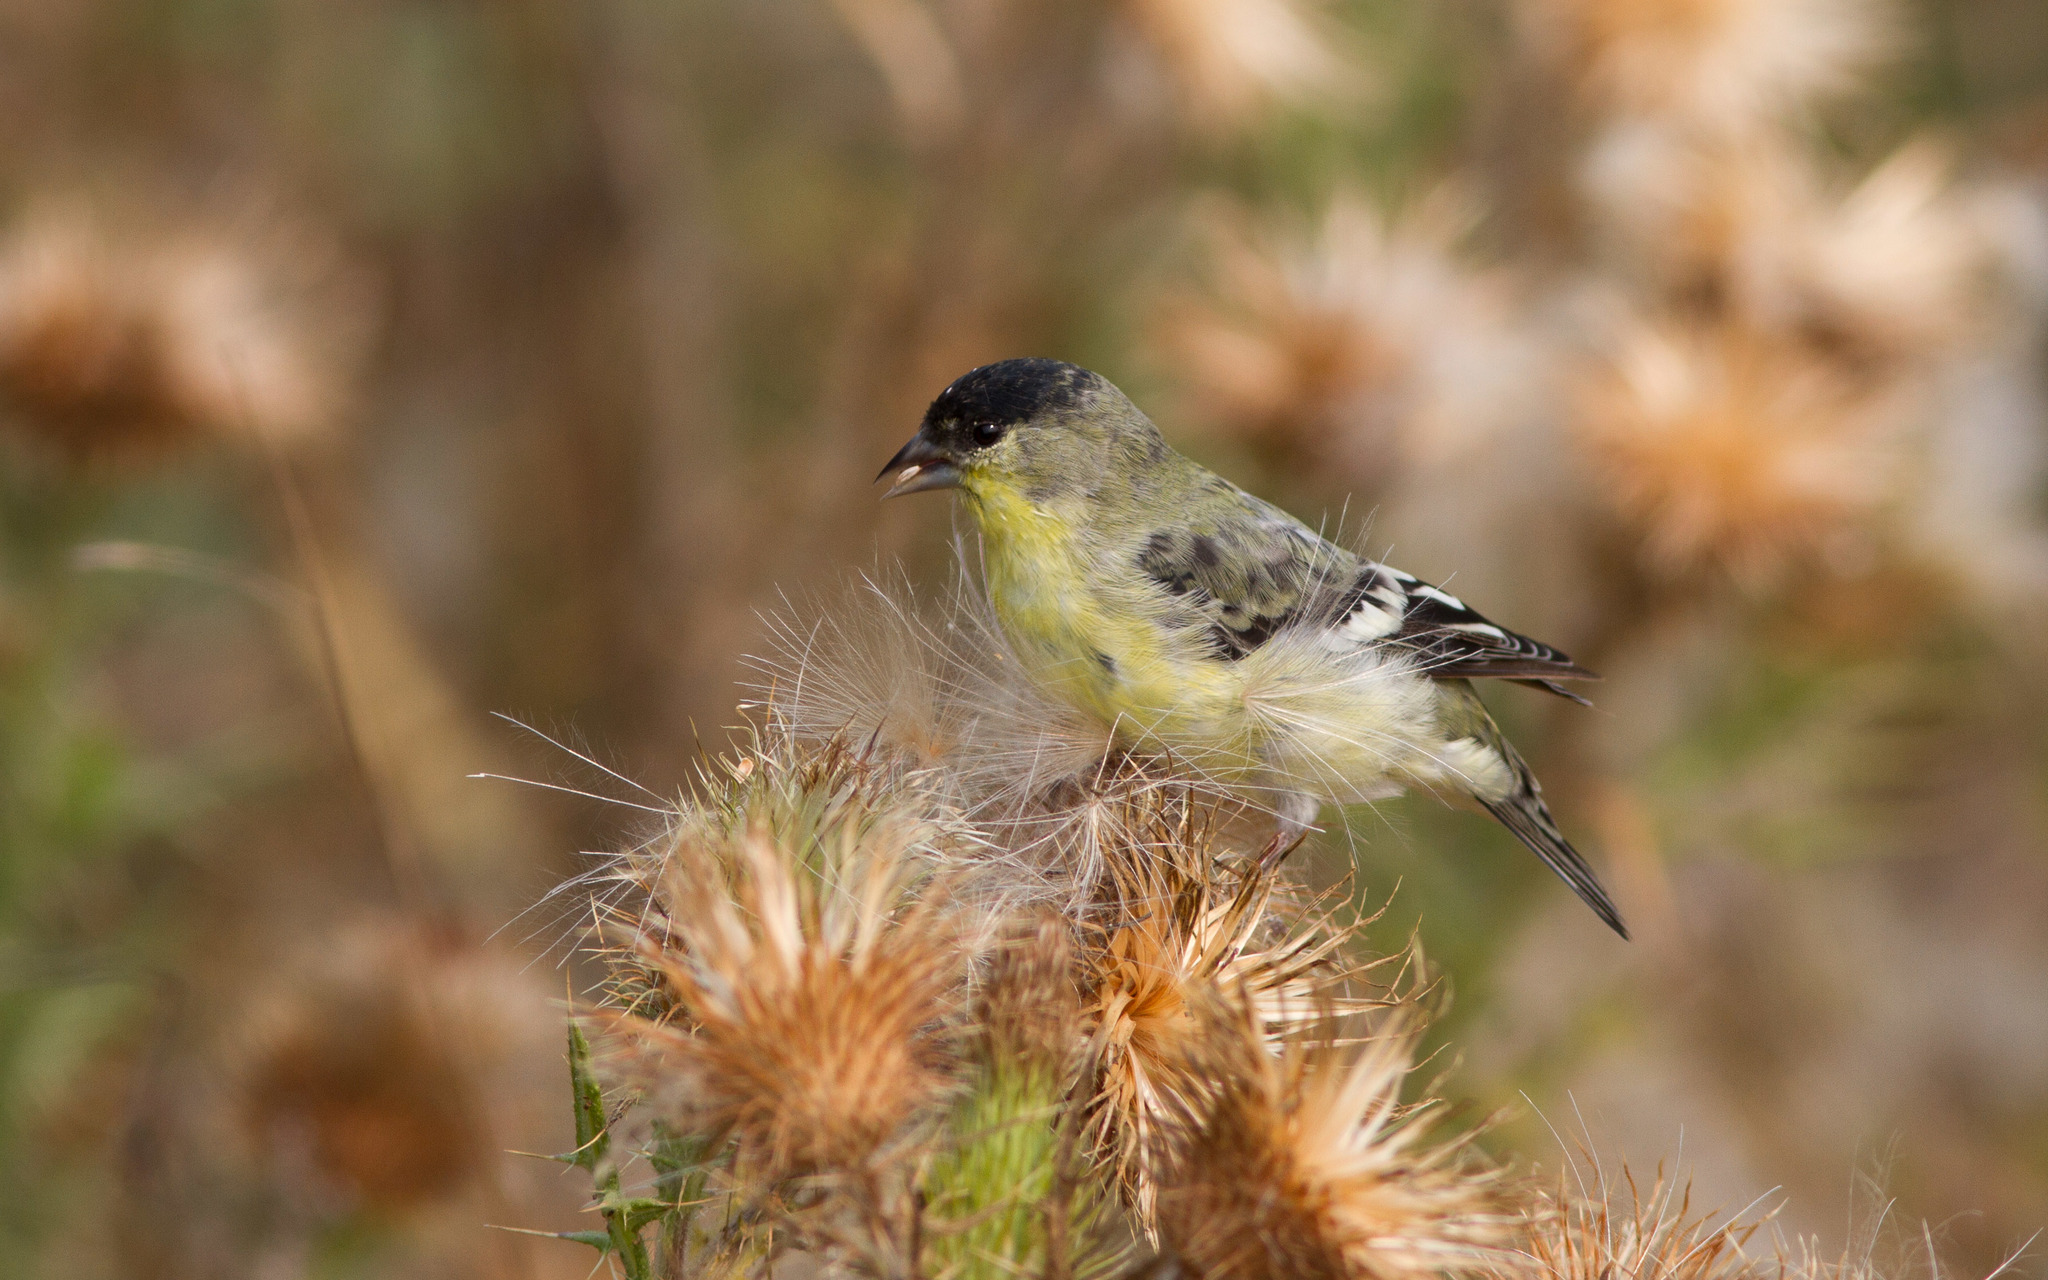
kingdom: Animalia
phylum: Chordata
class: Aves
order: Passeriformes
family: Fringillidae
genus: Spinus
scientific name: Spinus psaltria
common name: Lesser goldfinch
